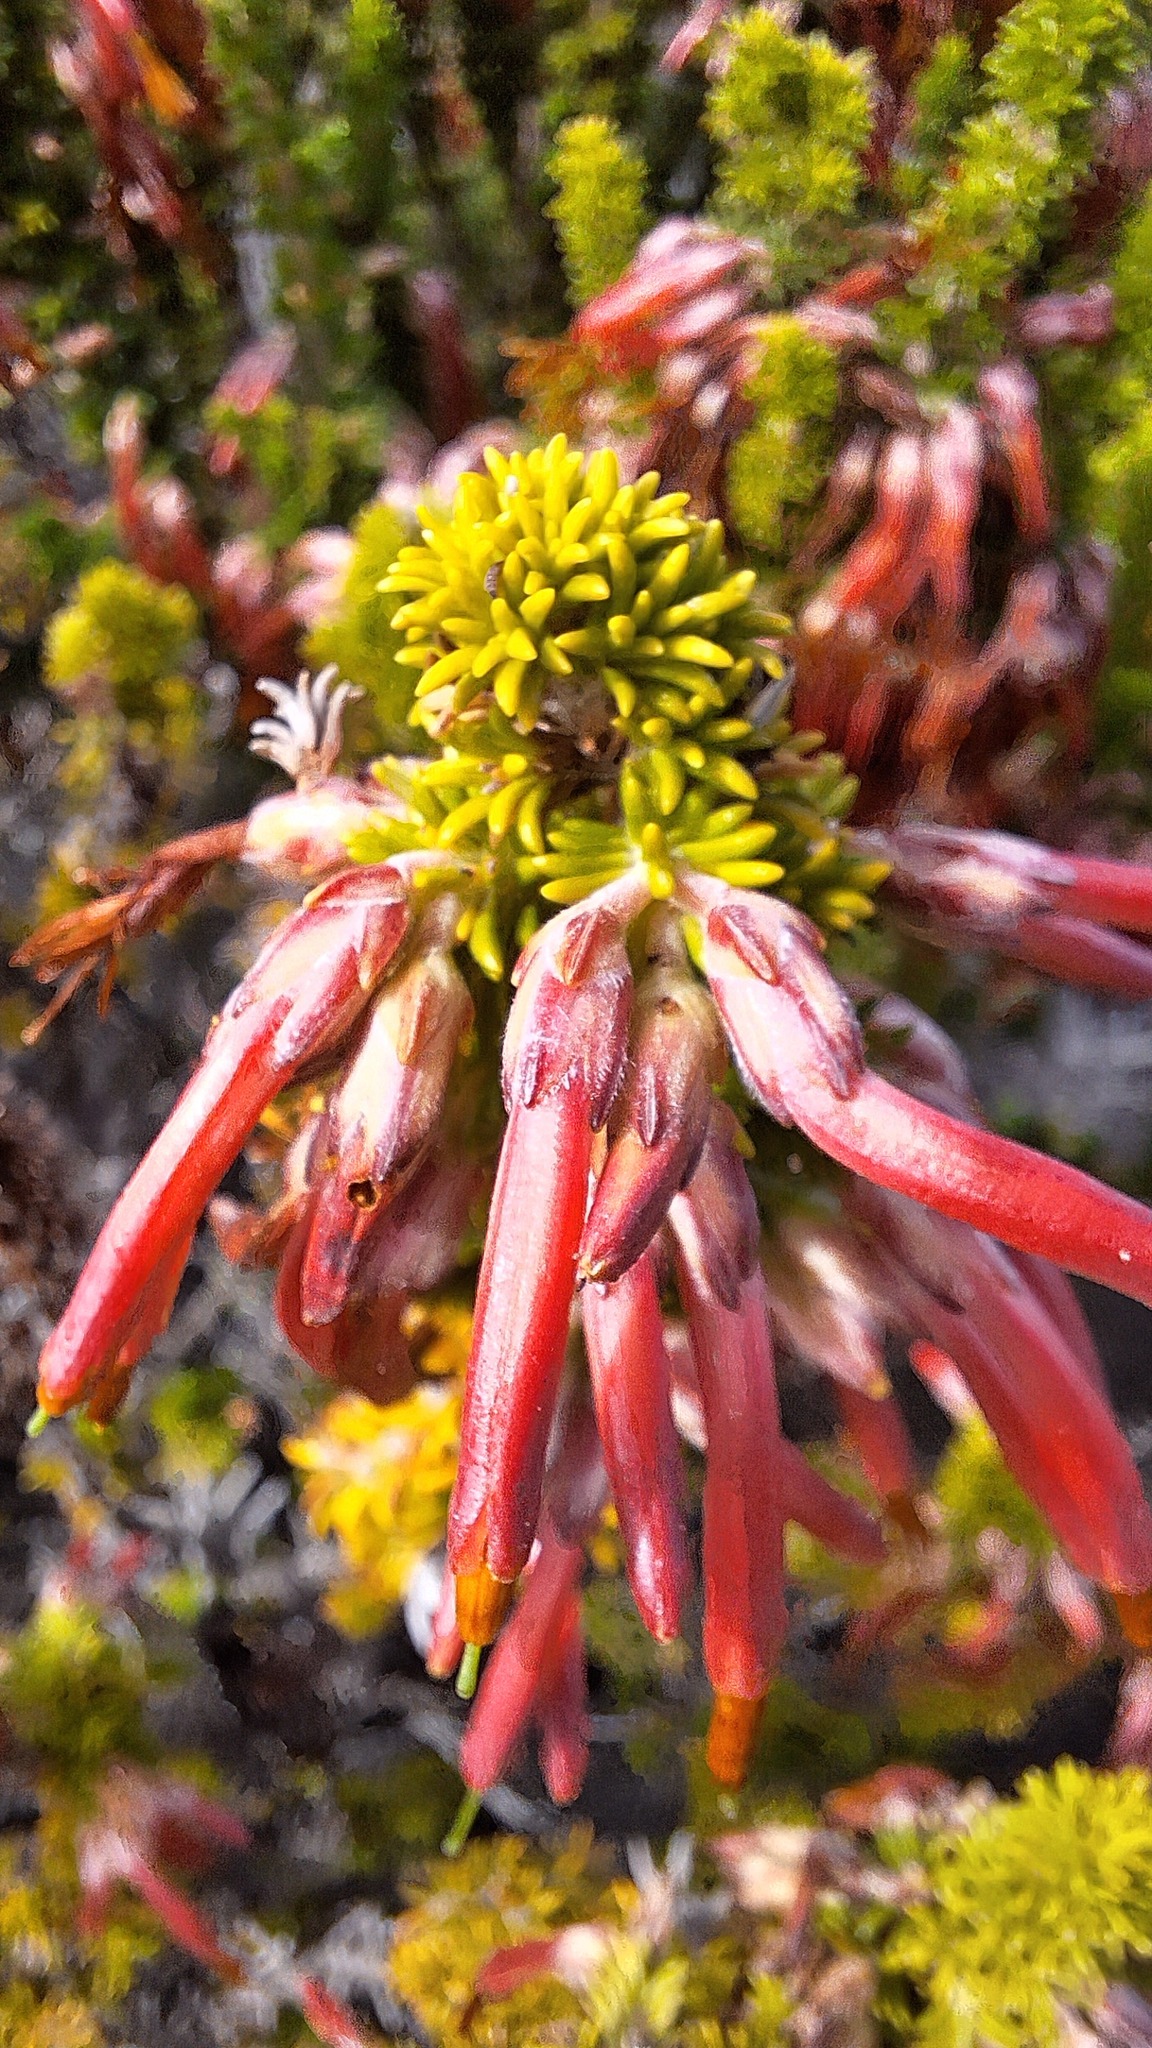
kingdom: Plantae
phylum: Tracheophyta
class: Magnoliopsida
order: Ericales
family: Ericaceae
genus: Erica
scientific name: Erica coccinea
